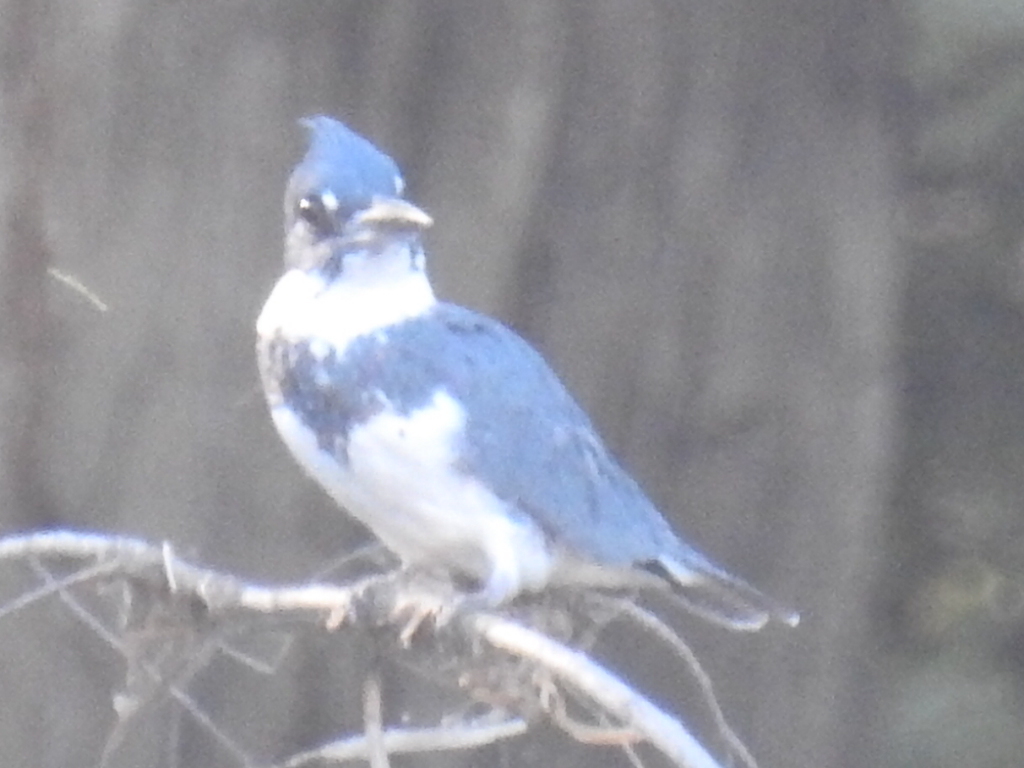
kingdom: Animalia
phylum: Chordata
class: Aves
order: Coraciiformes
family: Alcedinidae
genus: Megaceryle
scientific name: Megaceryle alcyon
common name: Belted kingfisher
